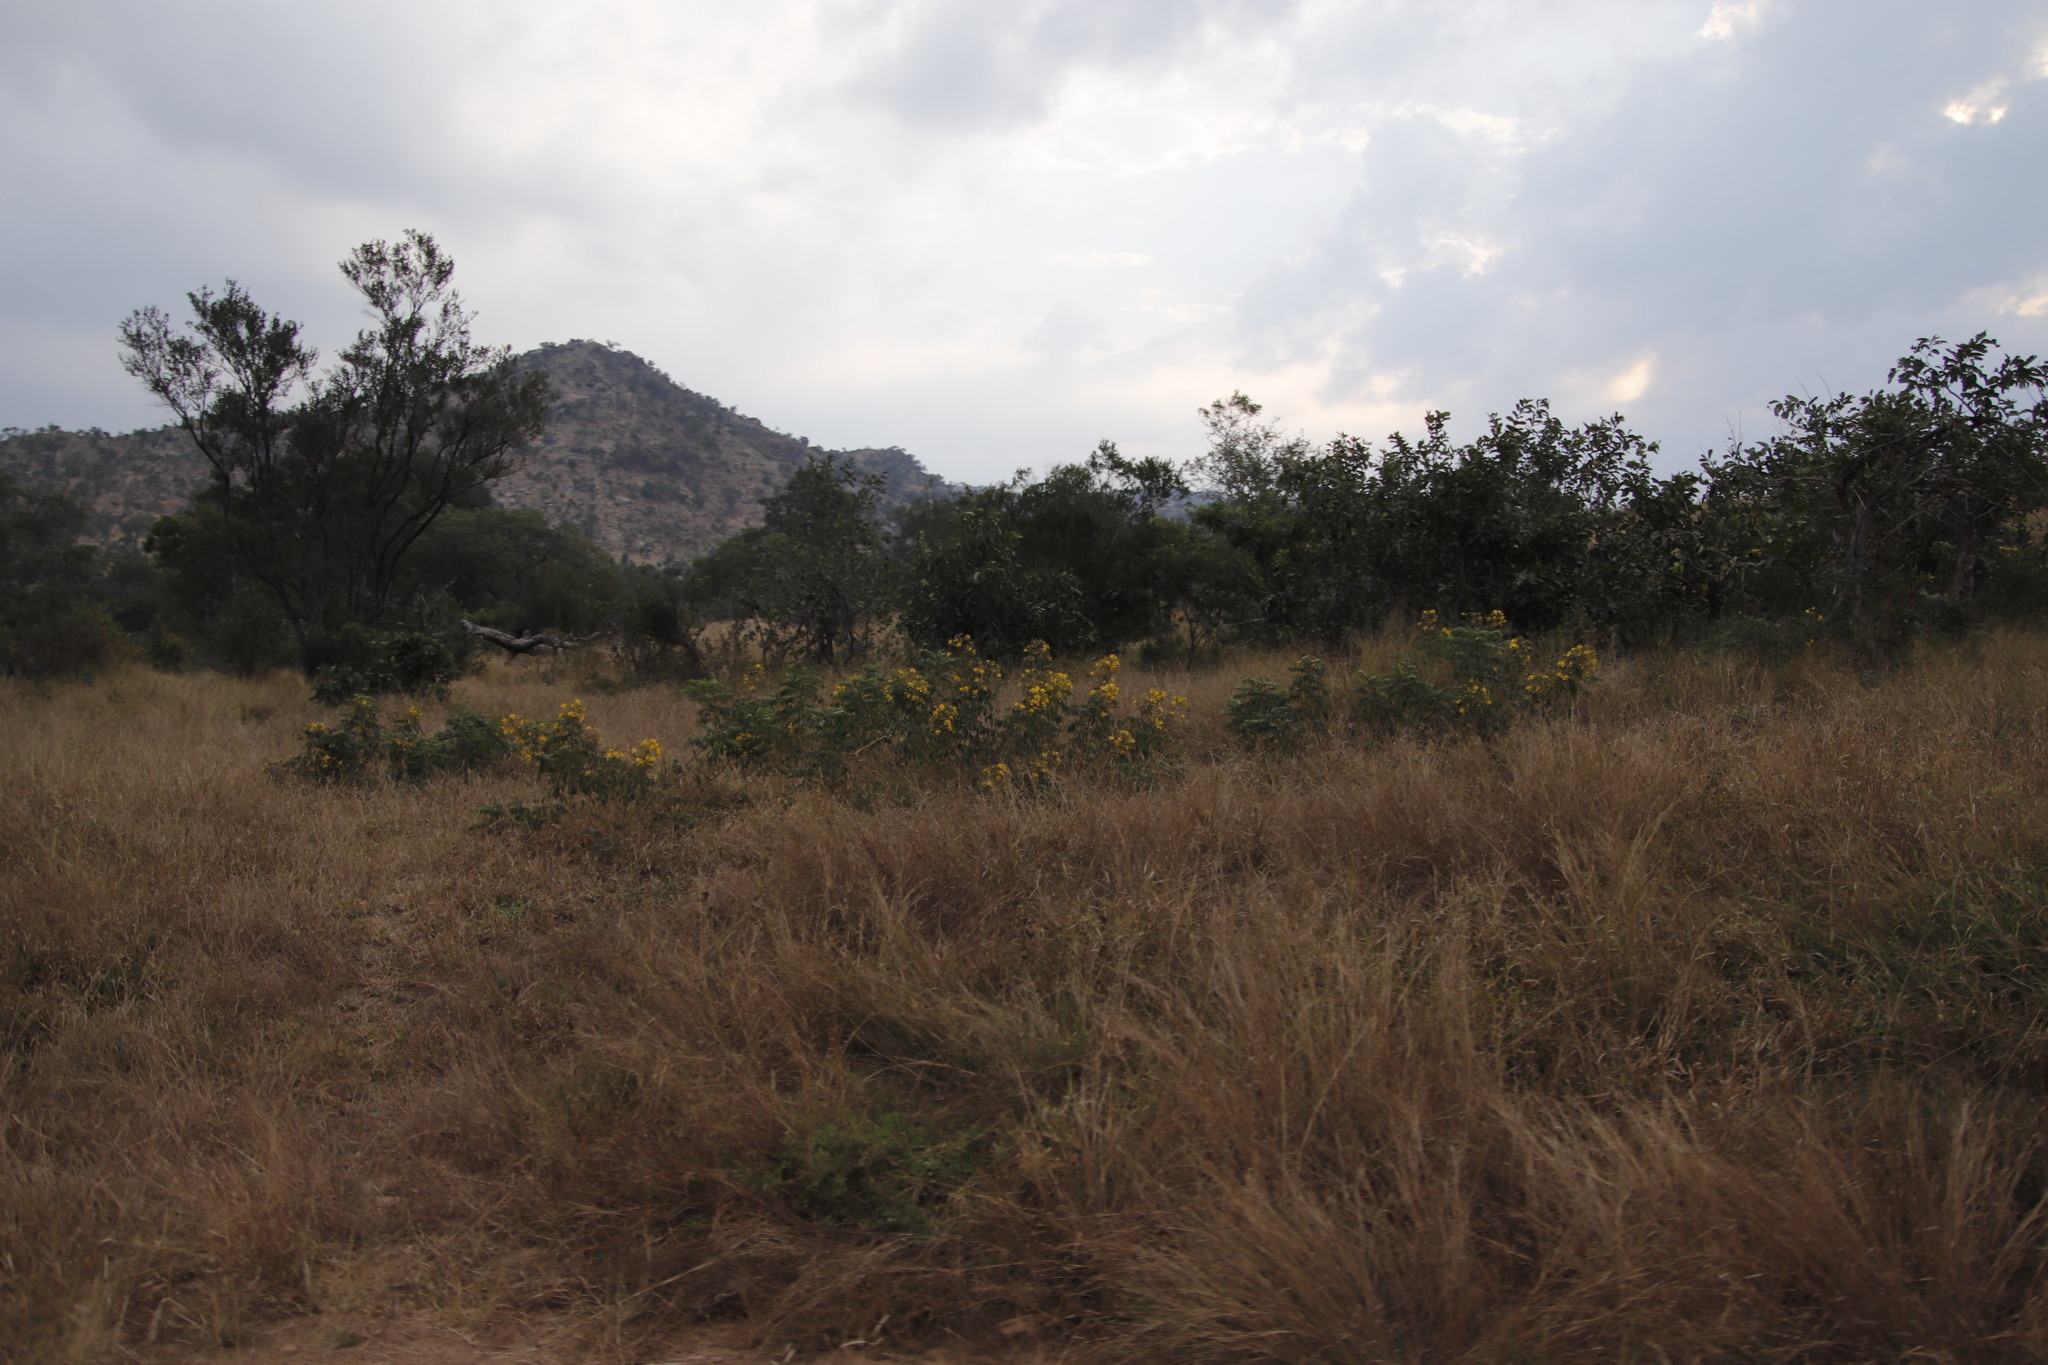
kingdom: Plantae
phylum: Tracheophyta
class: Magnoliopsida
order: Fabales
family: Fabaceae
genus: Senna
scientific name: Senna petersiana
